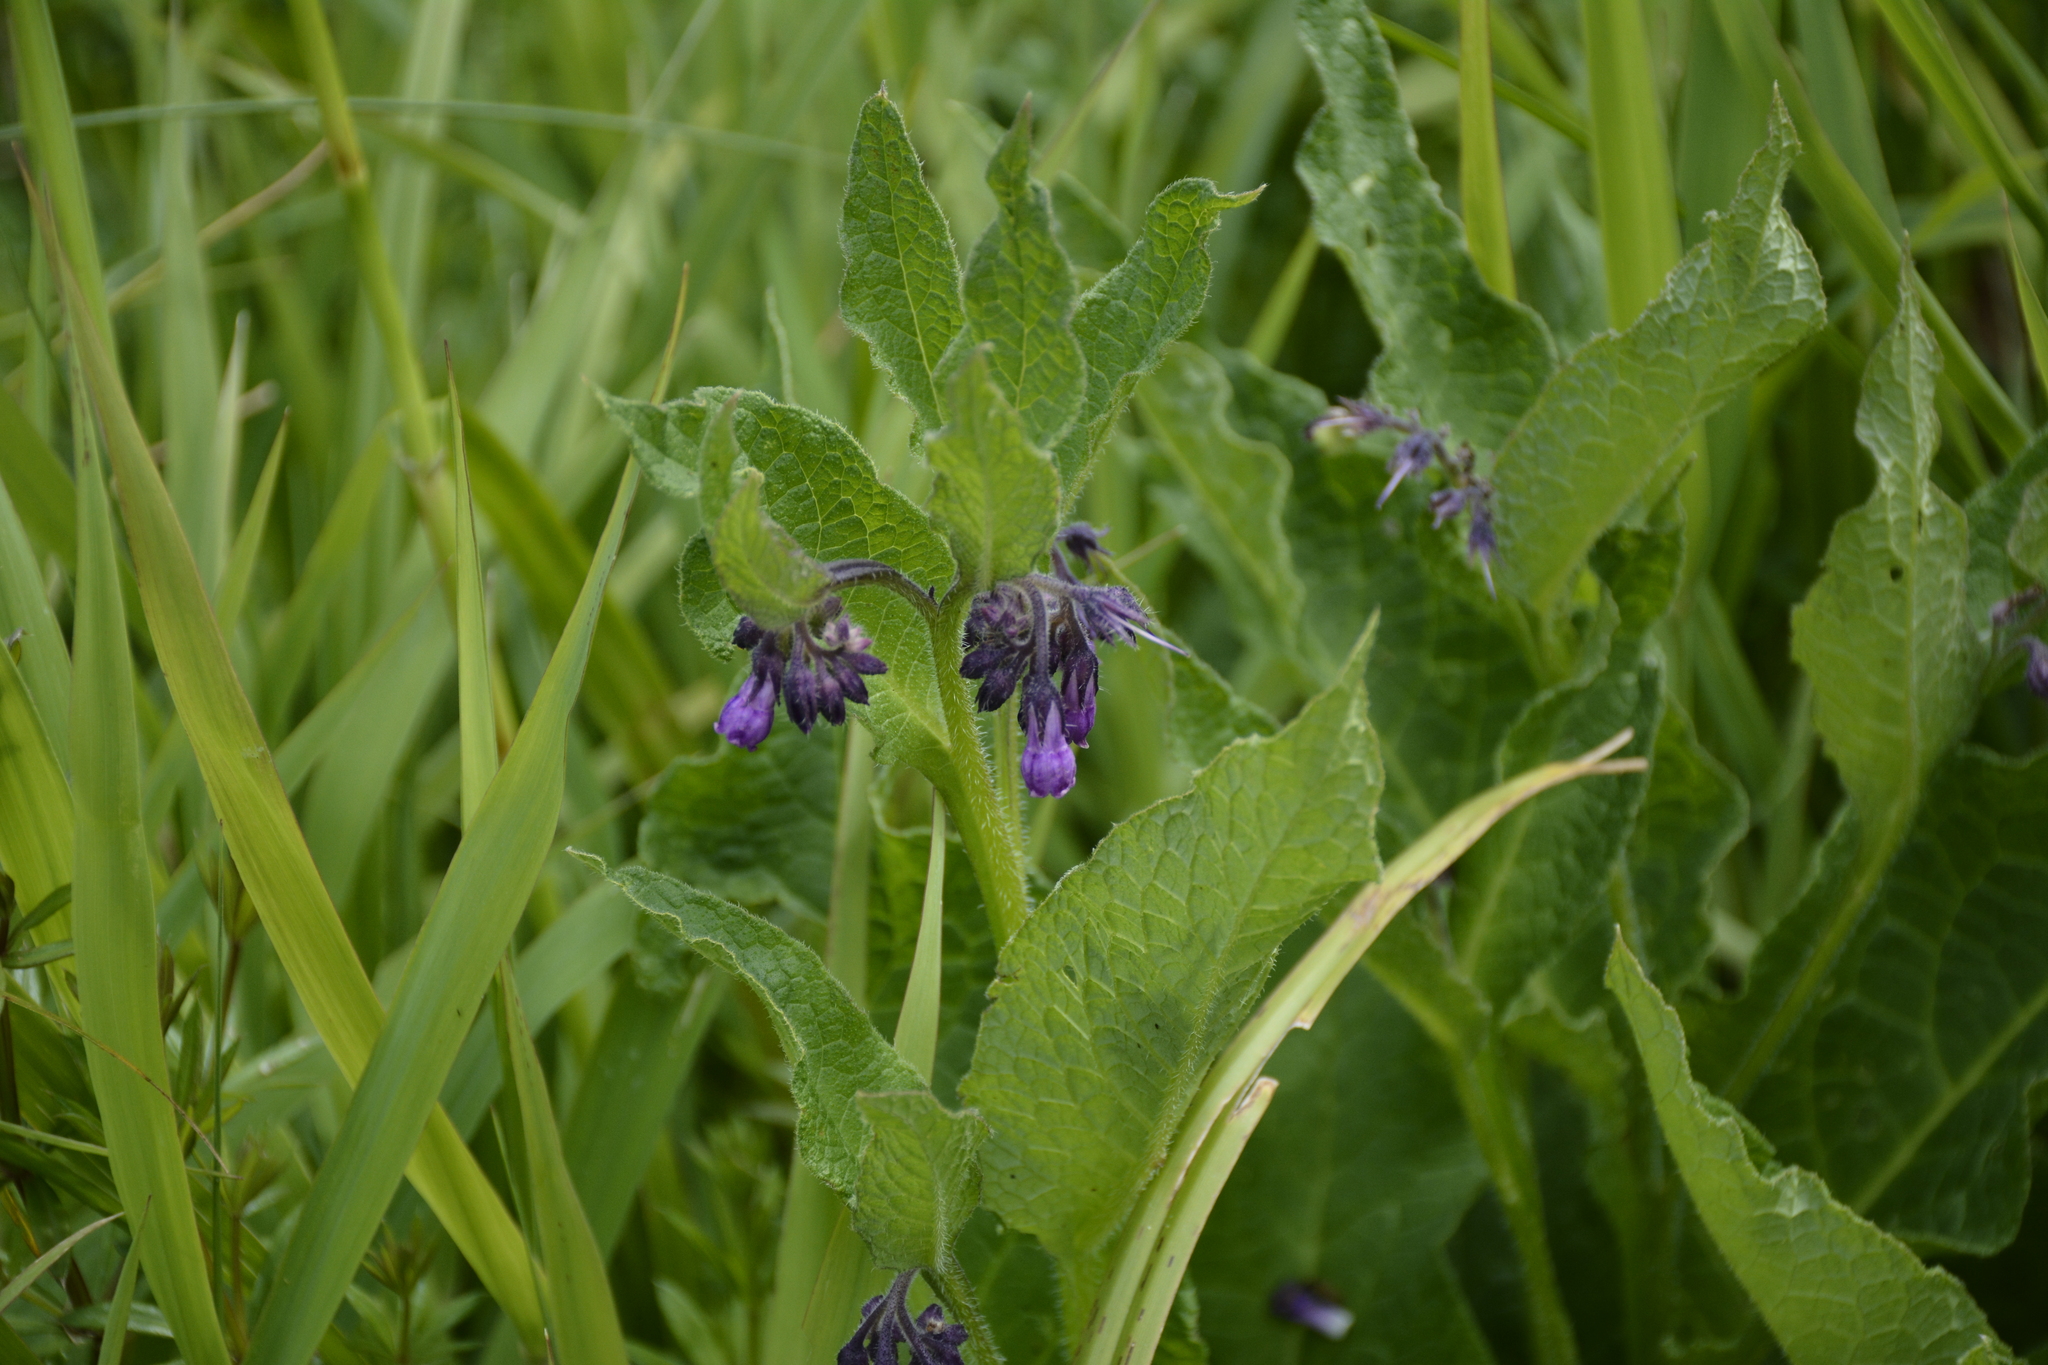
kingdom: Plantae
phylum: Tracheophyta
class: Magnoliopsida
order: Boraginales
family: Boraginaceae
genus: Symphytum
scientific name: Symphytum officinale
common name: Common comfrey
